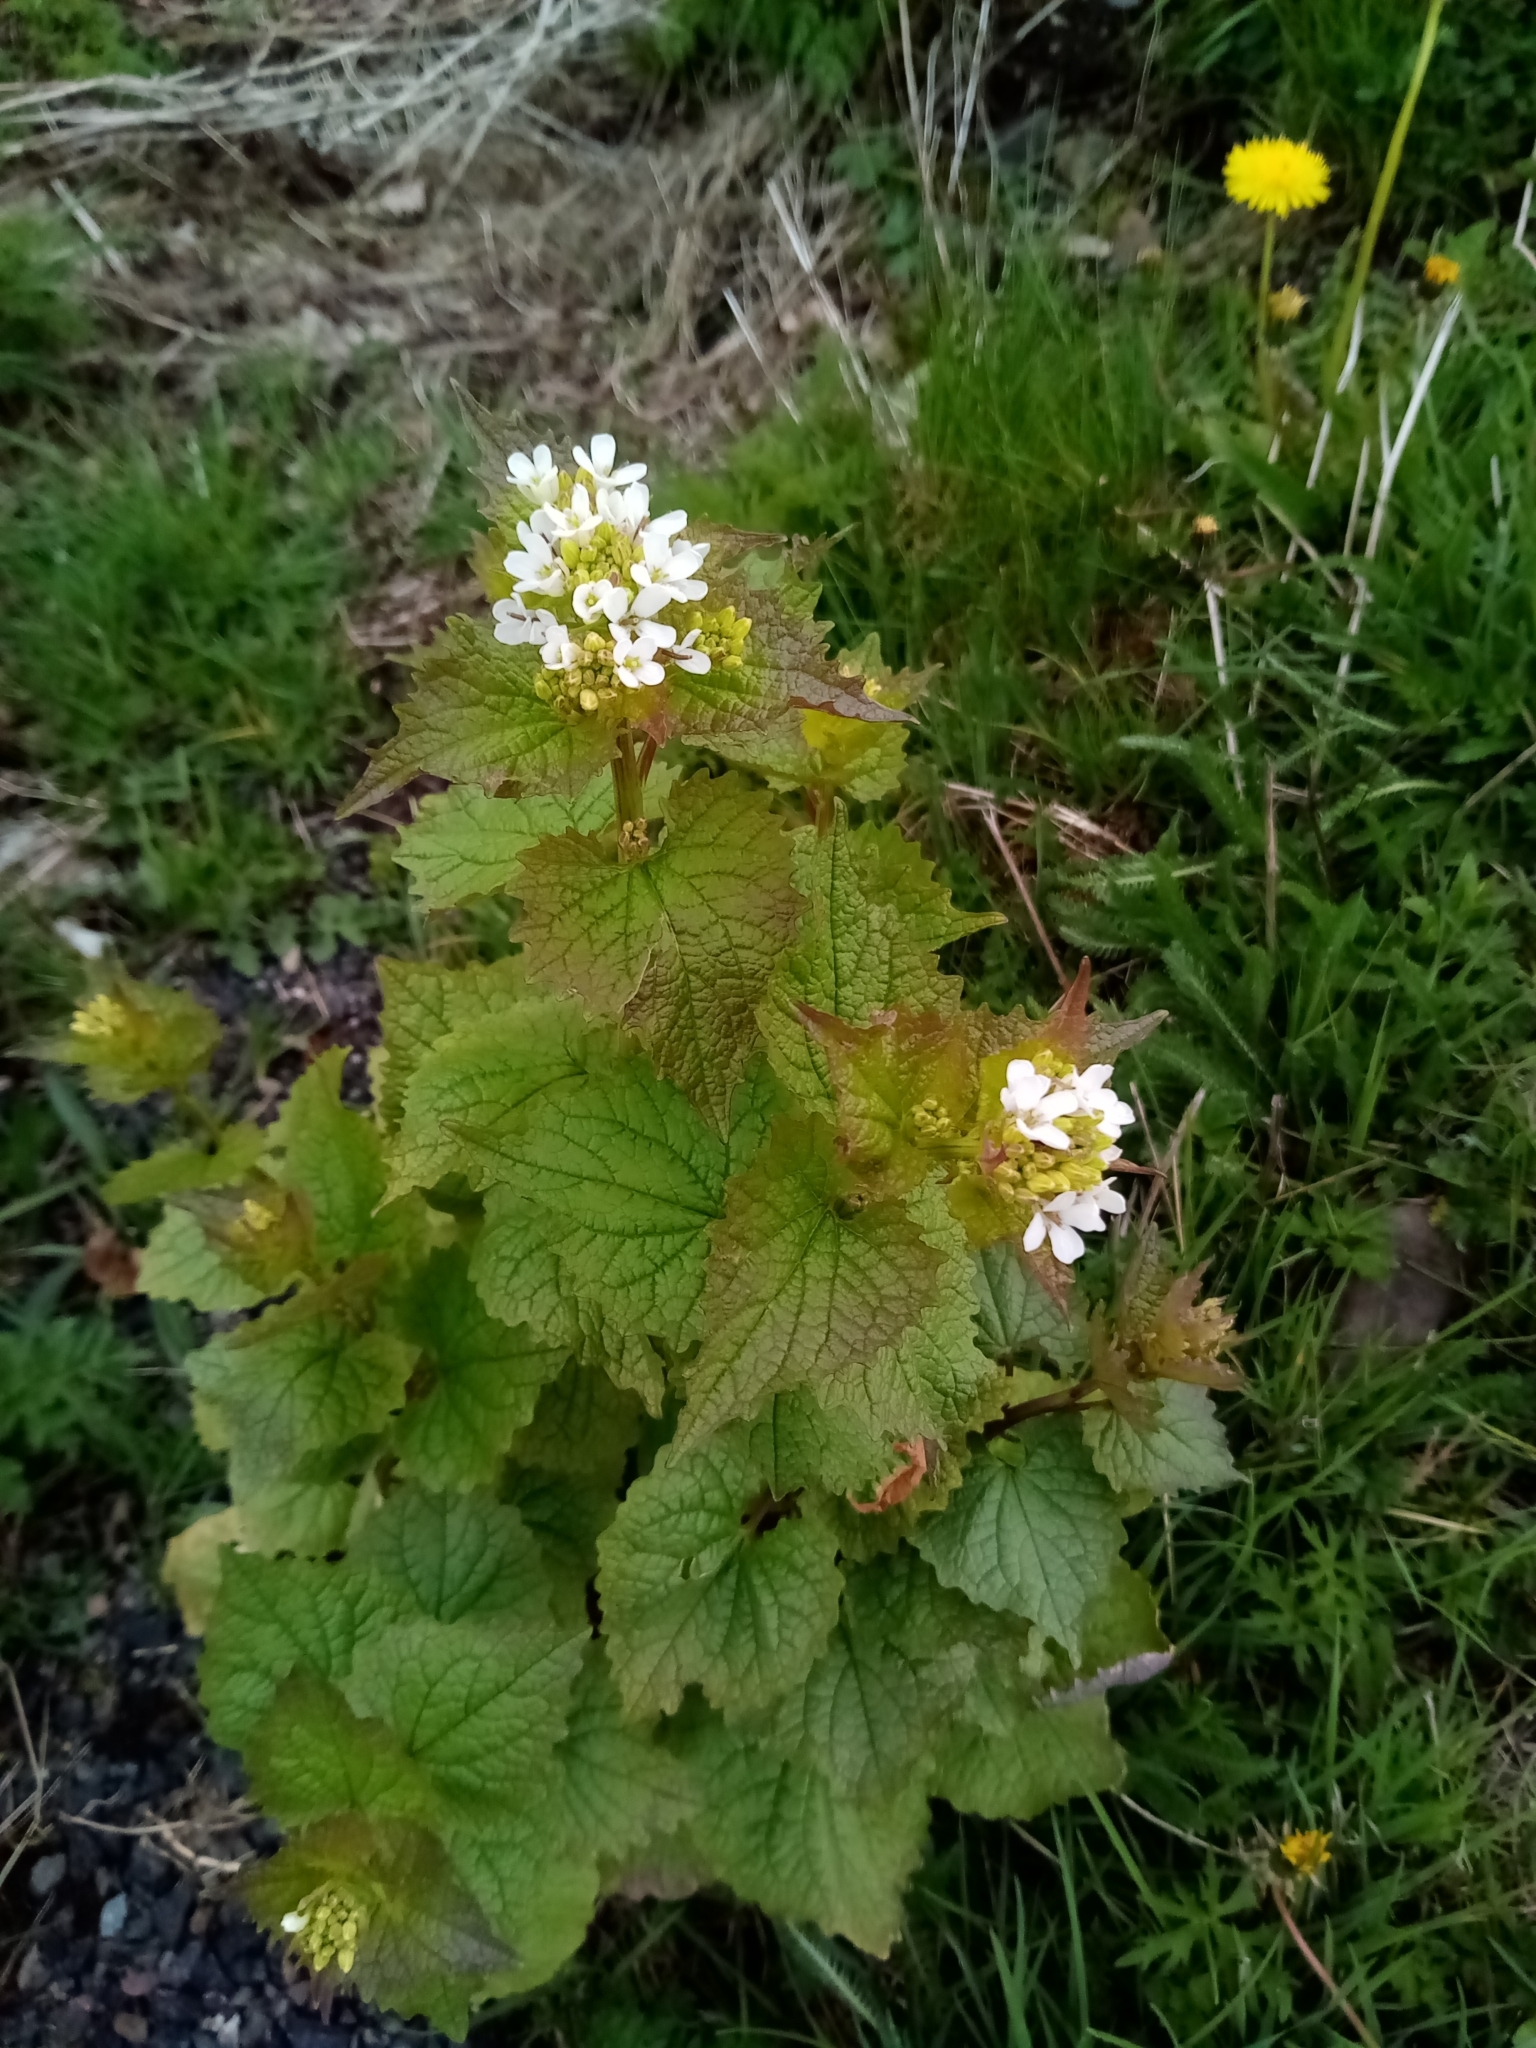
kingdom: Plantae
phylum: Tracheophyta
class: Magnoliopsida
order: Brassicales
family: Brassicaceae
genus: Alliaria
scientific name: Alliaria petiolata
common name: Garlic mustard
